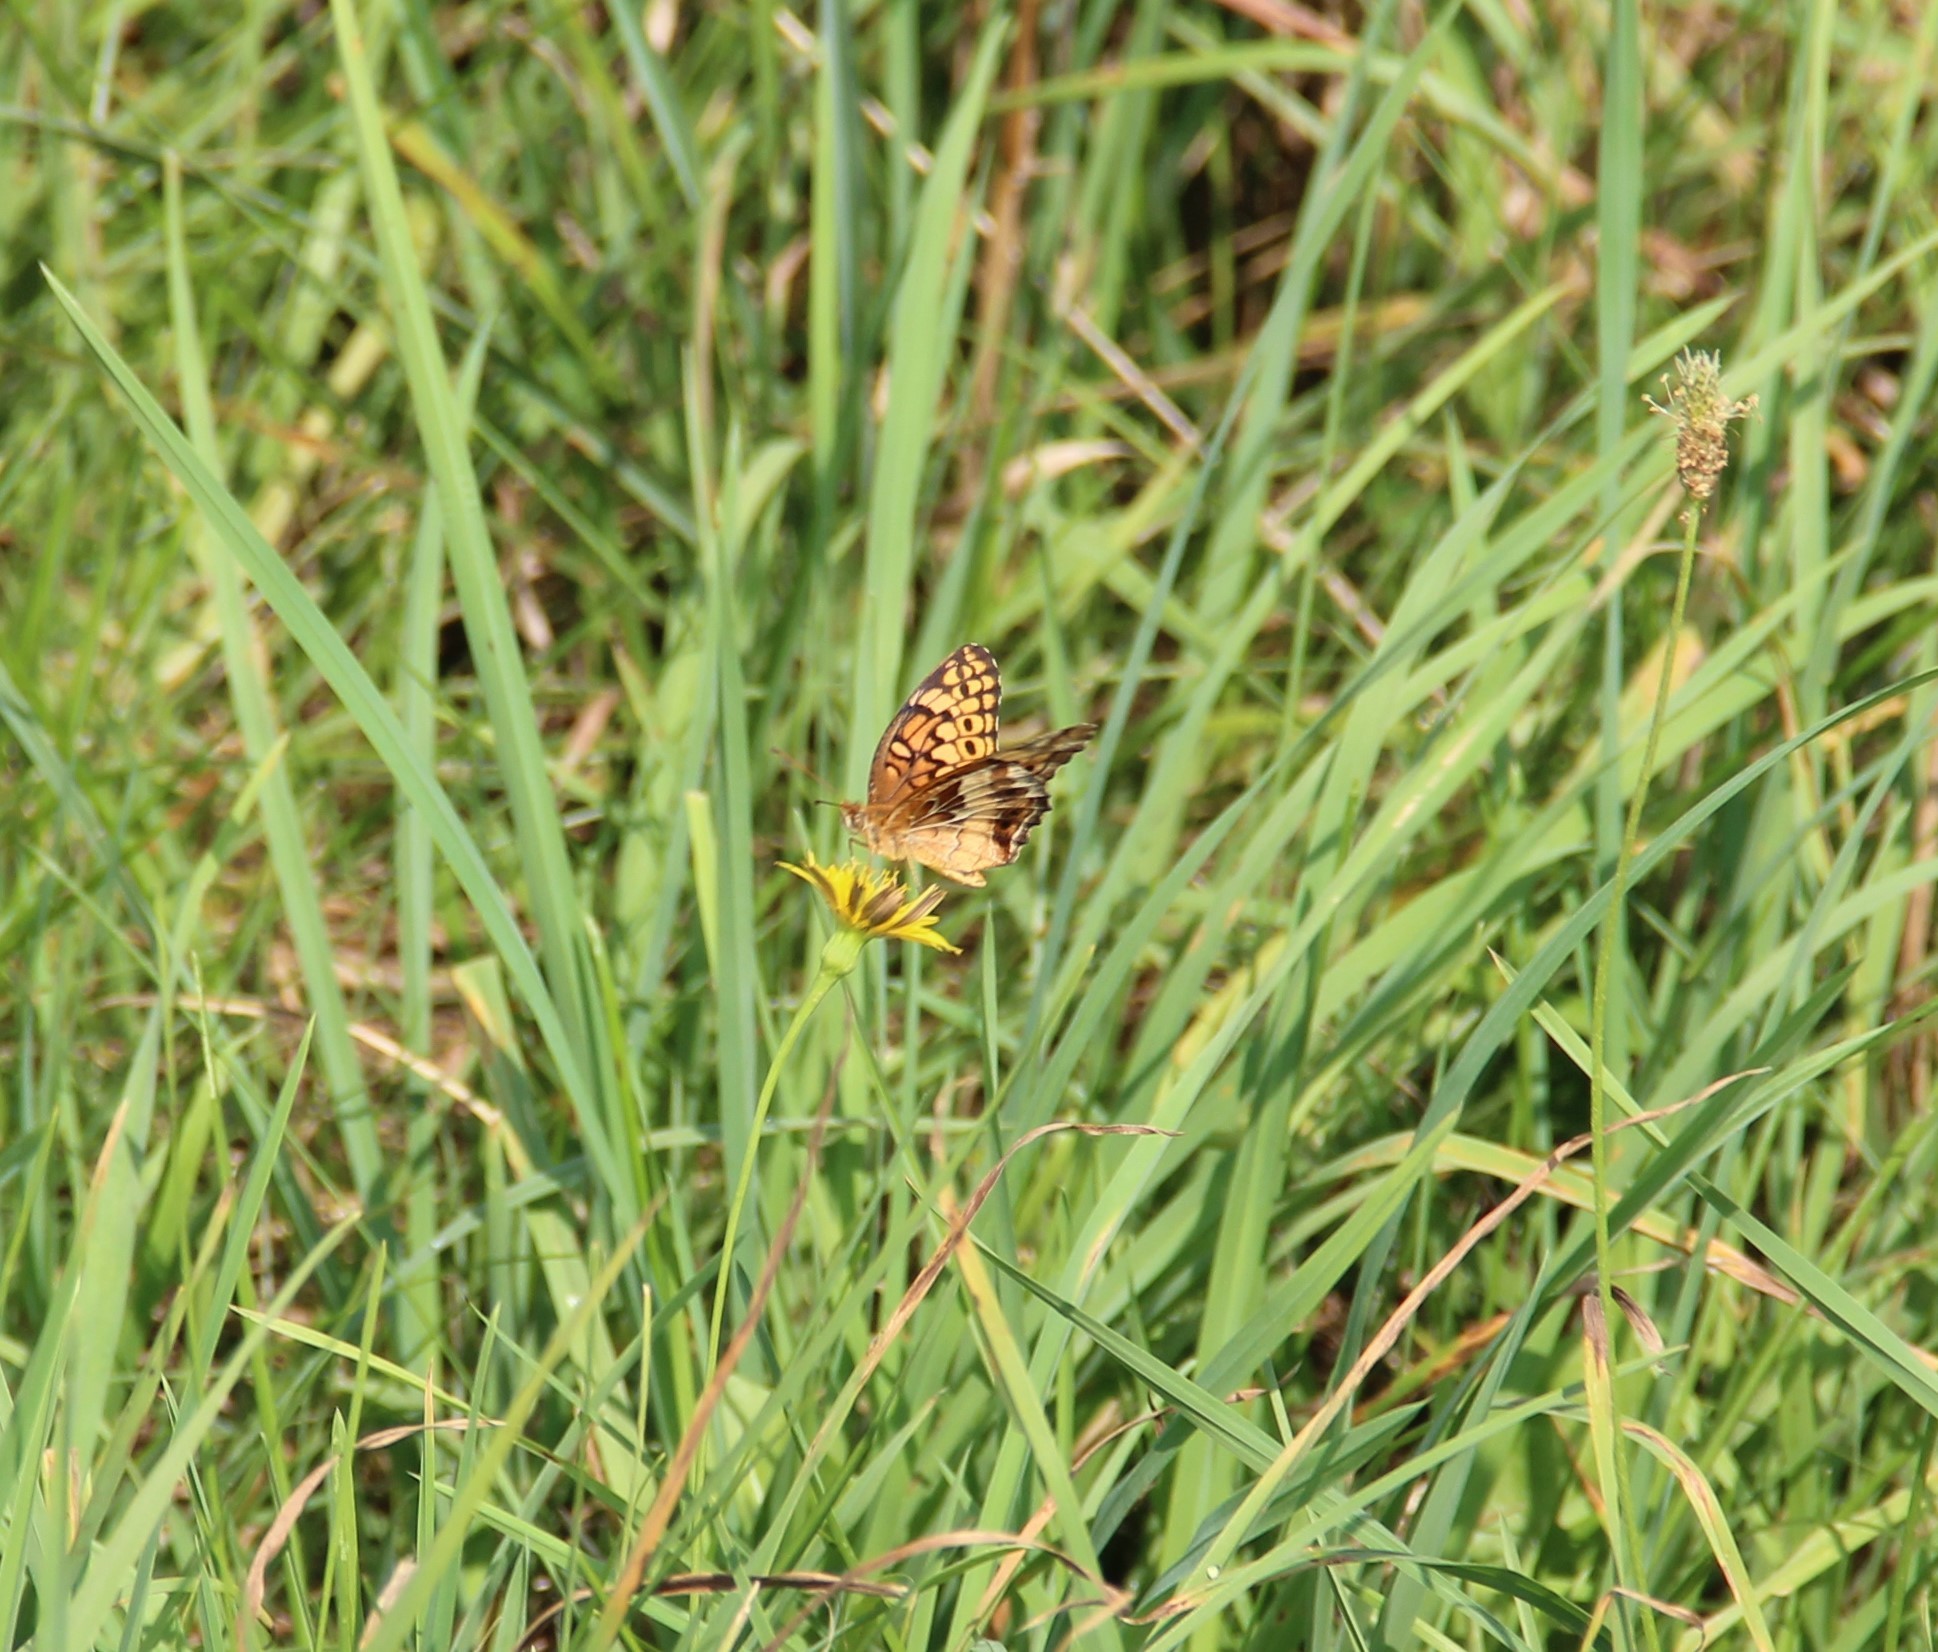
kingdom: Animalia
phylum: Arthropoda
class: Insecta
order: Lepidoptera
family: Nymphalidae
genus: Euptoieta
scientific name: Euptoieta claudia
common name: Variegated fritillary
